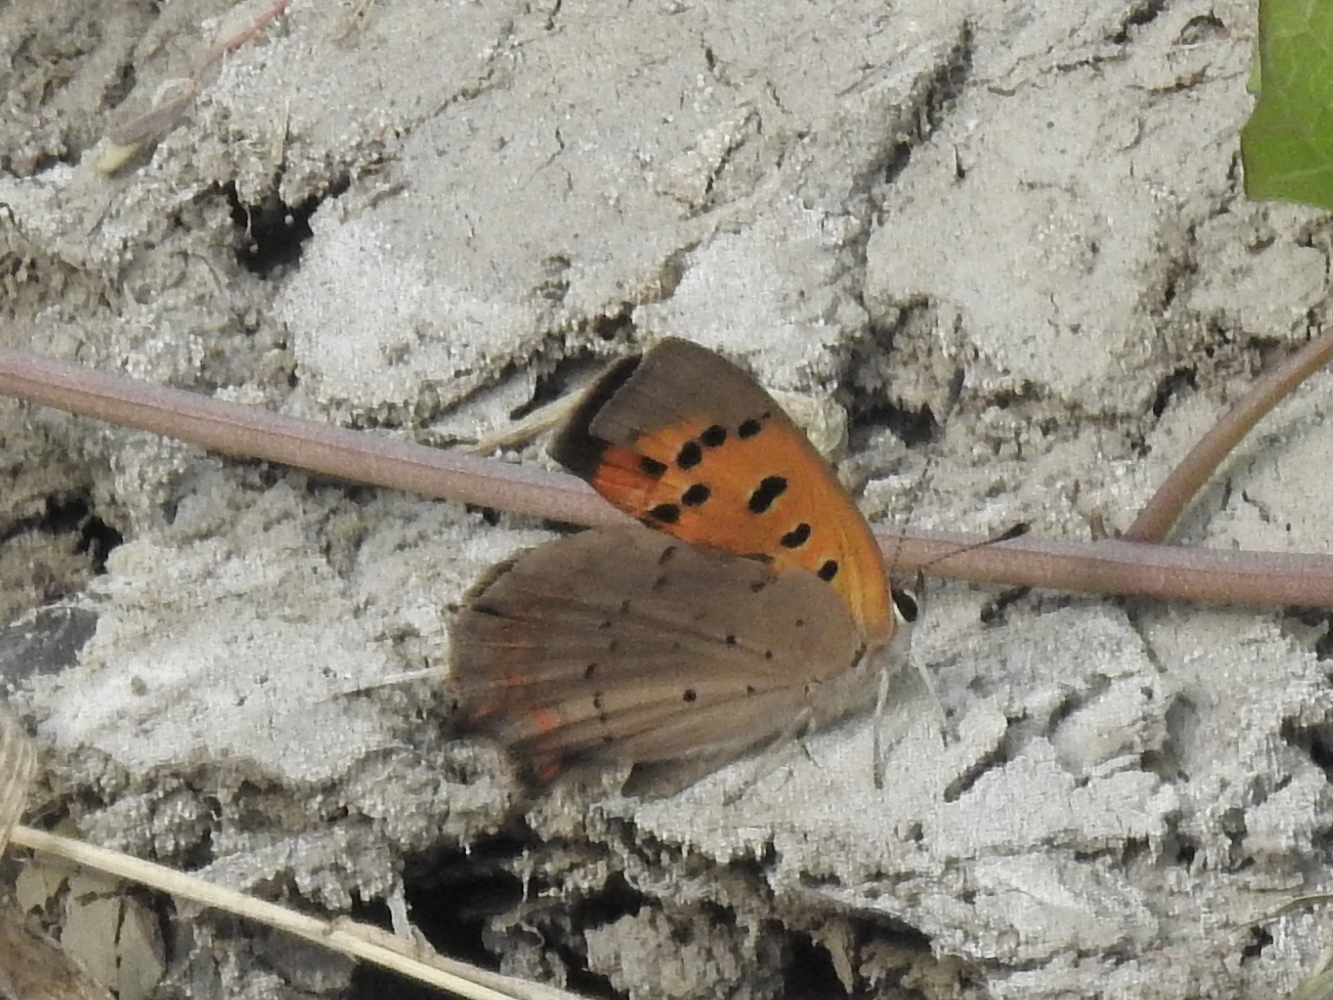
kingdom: Animalia
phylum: Arthropoda
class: Insecta
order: Lepidoptera
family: Lycaenidae
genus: Lycaena
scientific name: Lycaena phlaeas
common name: Small copper
